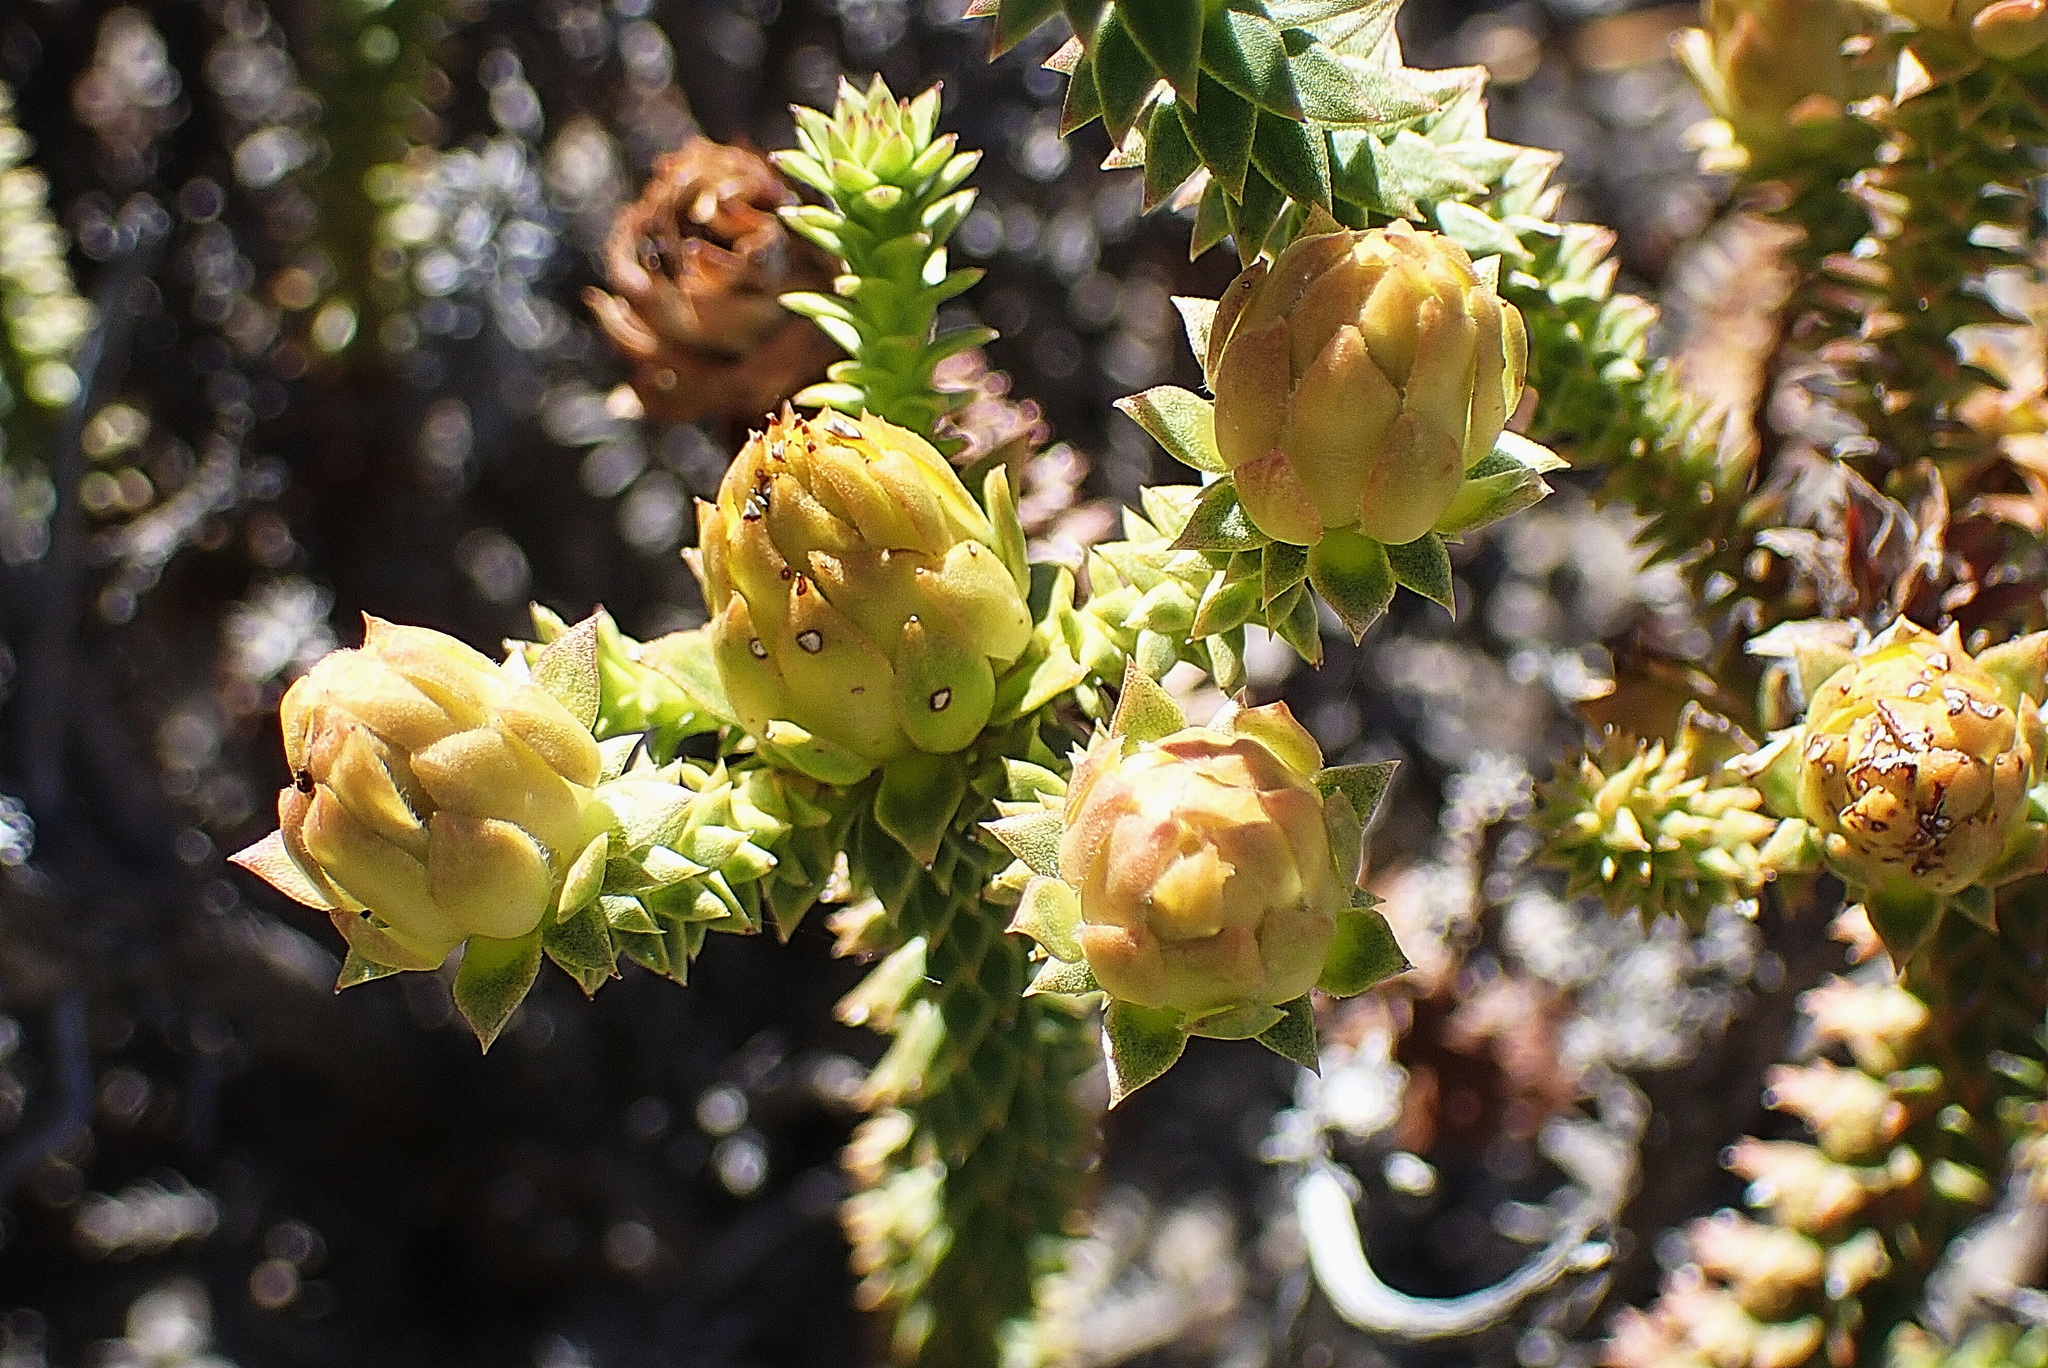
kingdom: Plantae
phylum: Tracheophyta
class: Magnoliopsida
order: Asterales
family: Asteraceae
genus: Oedera
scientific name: Oedera imbricata
